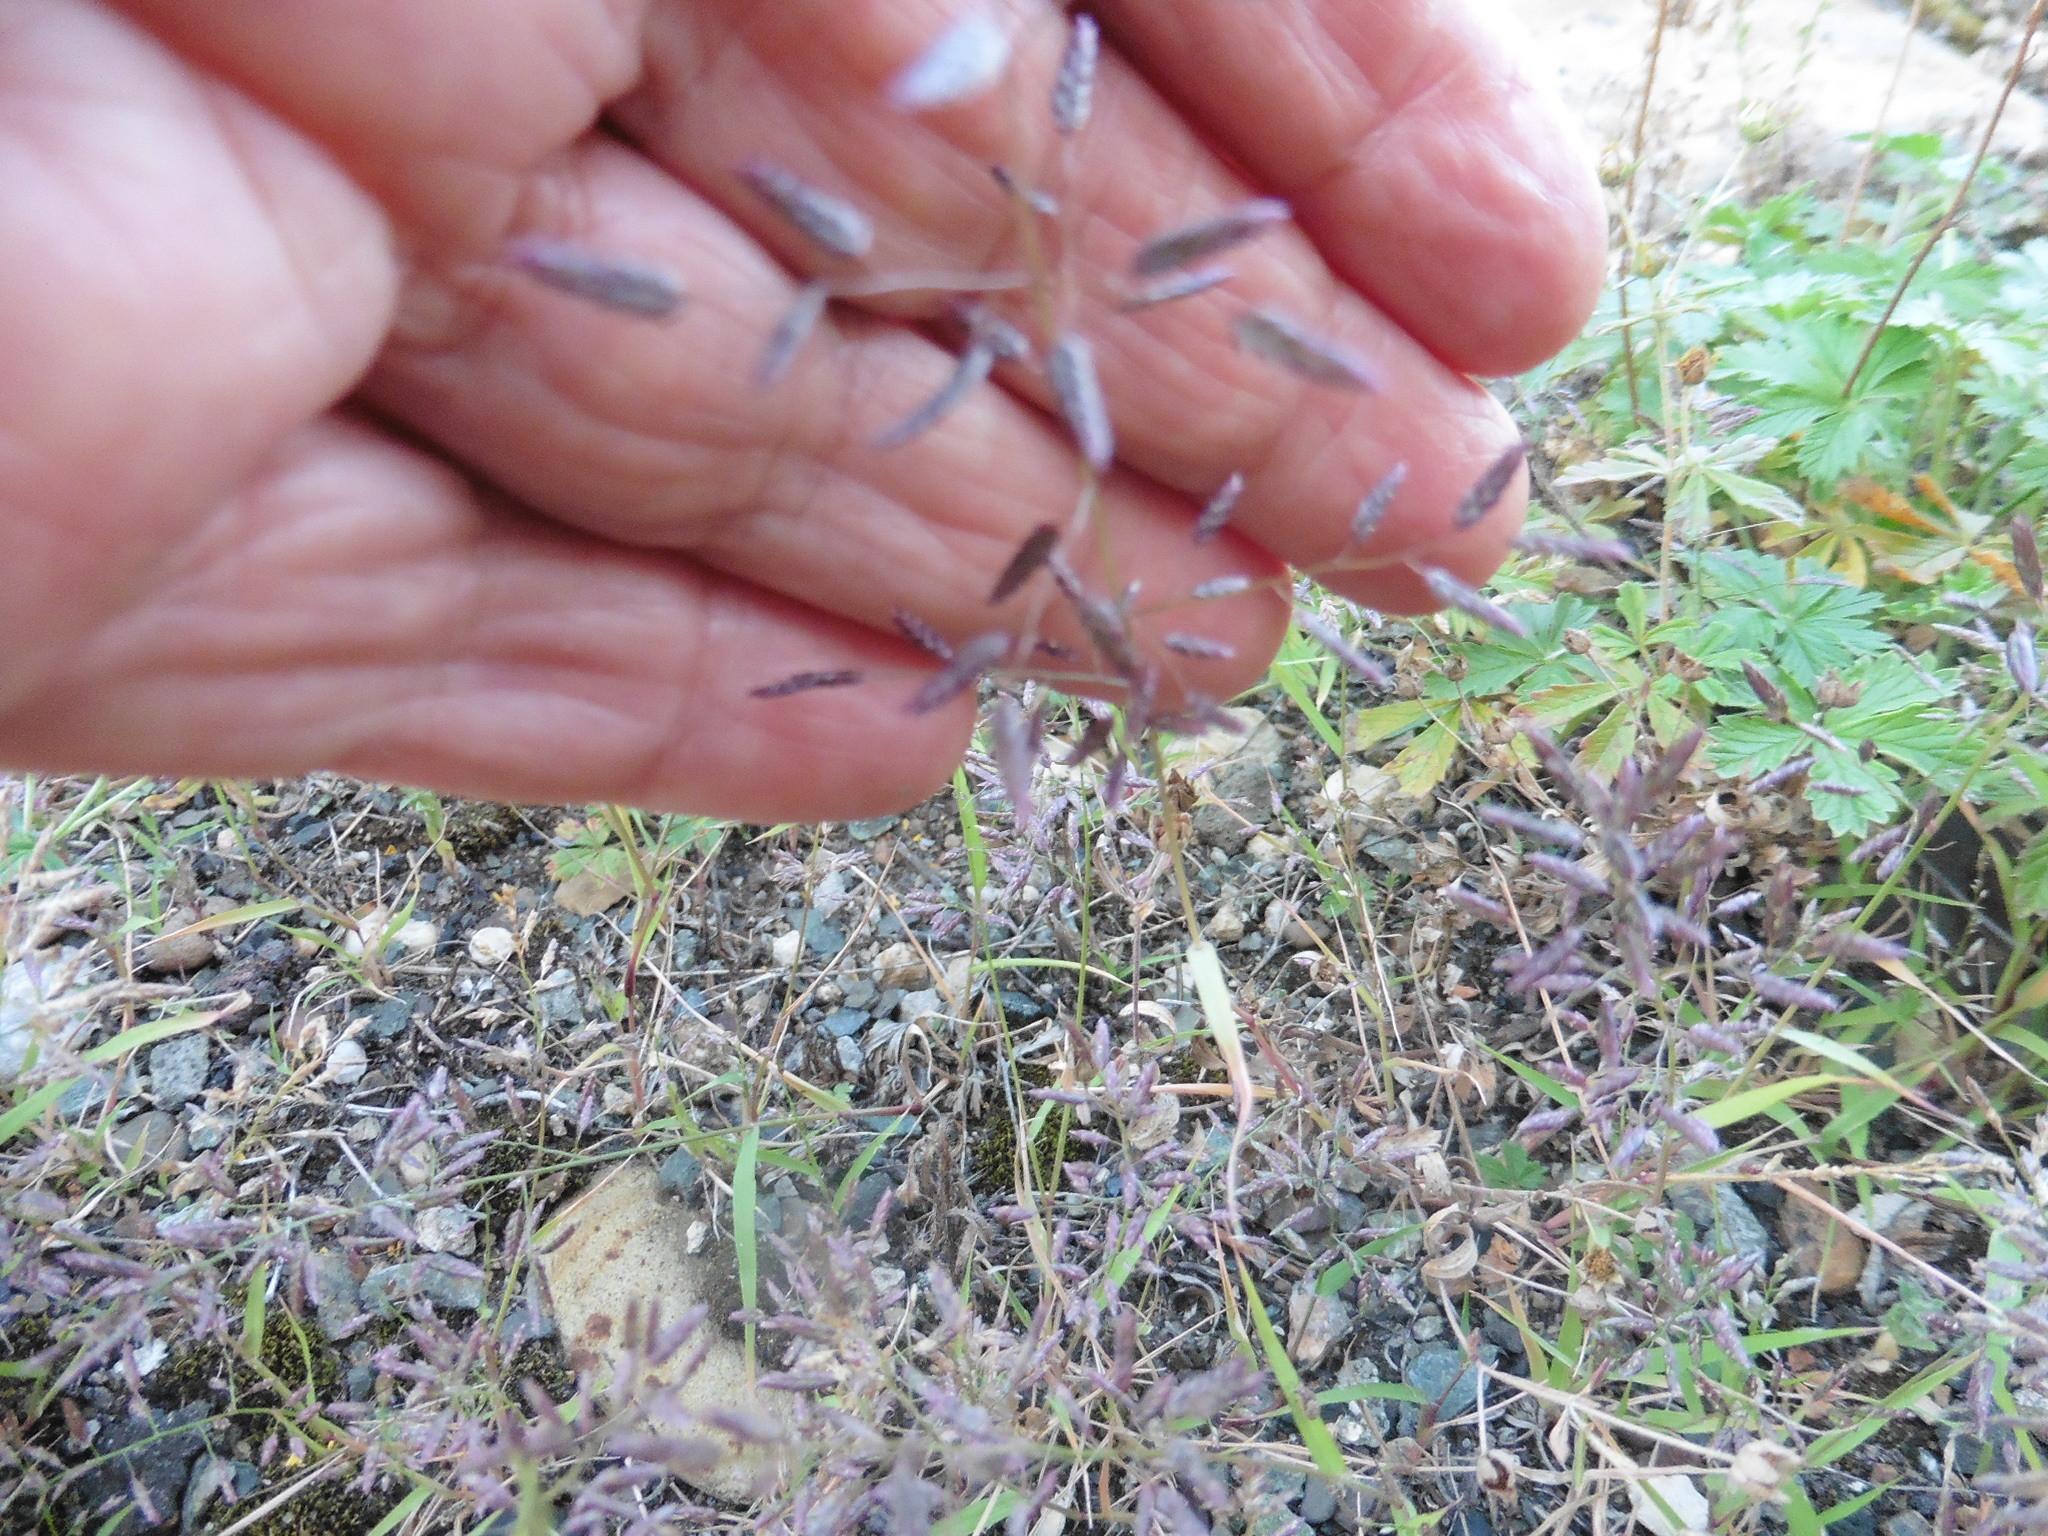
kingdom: Plantae
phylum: Tracheophyta
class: Liliopsida
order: Poales
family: Poaceae
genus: Eragrostis
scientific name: Eragrostis minor
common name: Small love-grass
